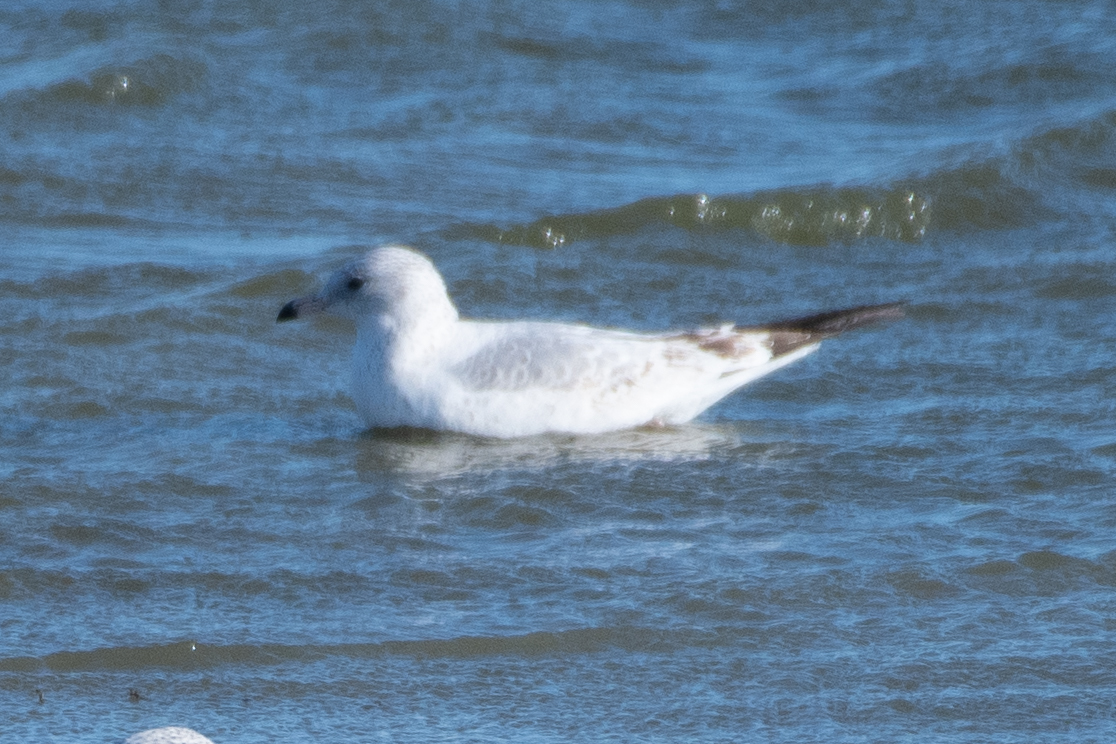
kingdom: Animalia
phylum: Chordata
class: Aves
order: Charadriiformes
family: Laridae
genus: Larus
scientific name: Larus delawarensis
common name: Ring-billed gull
